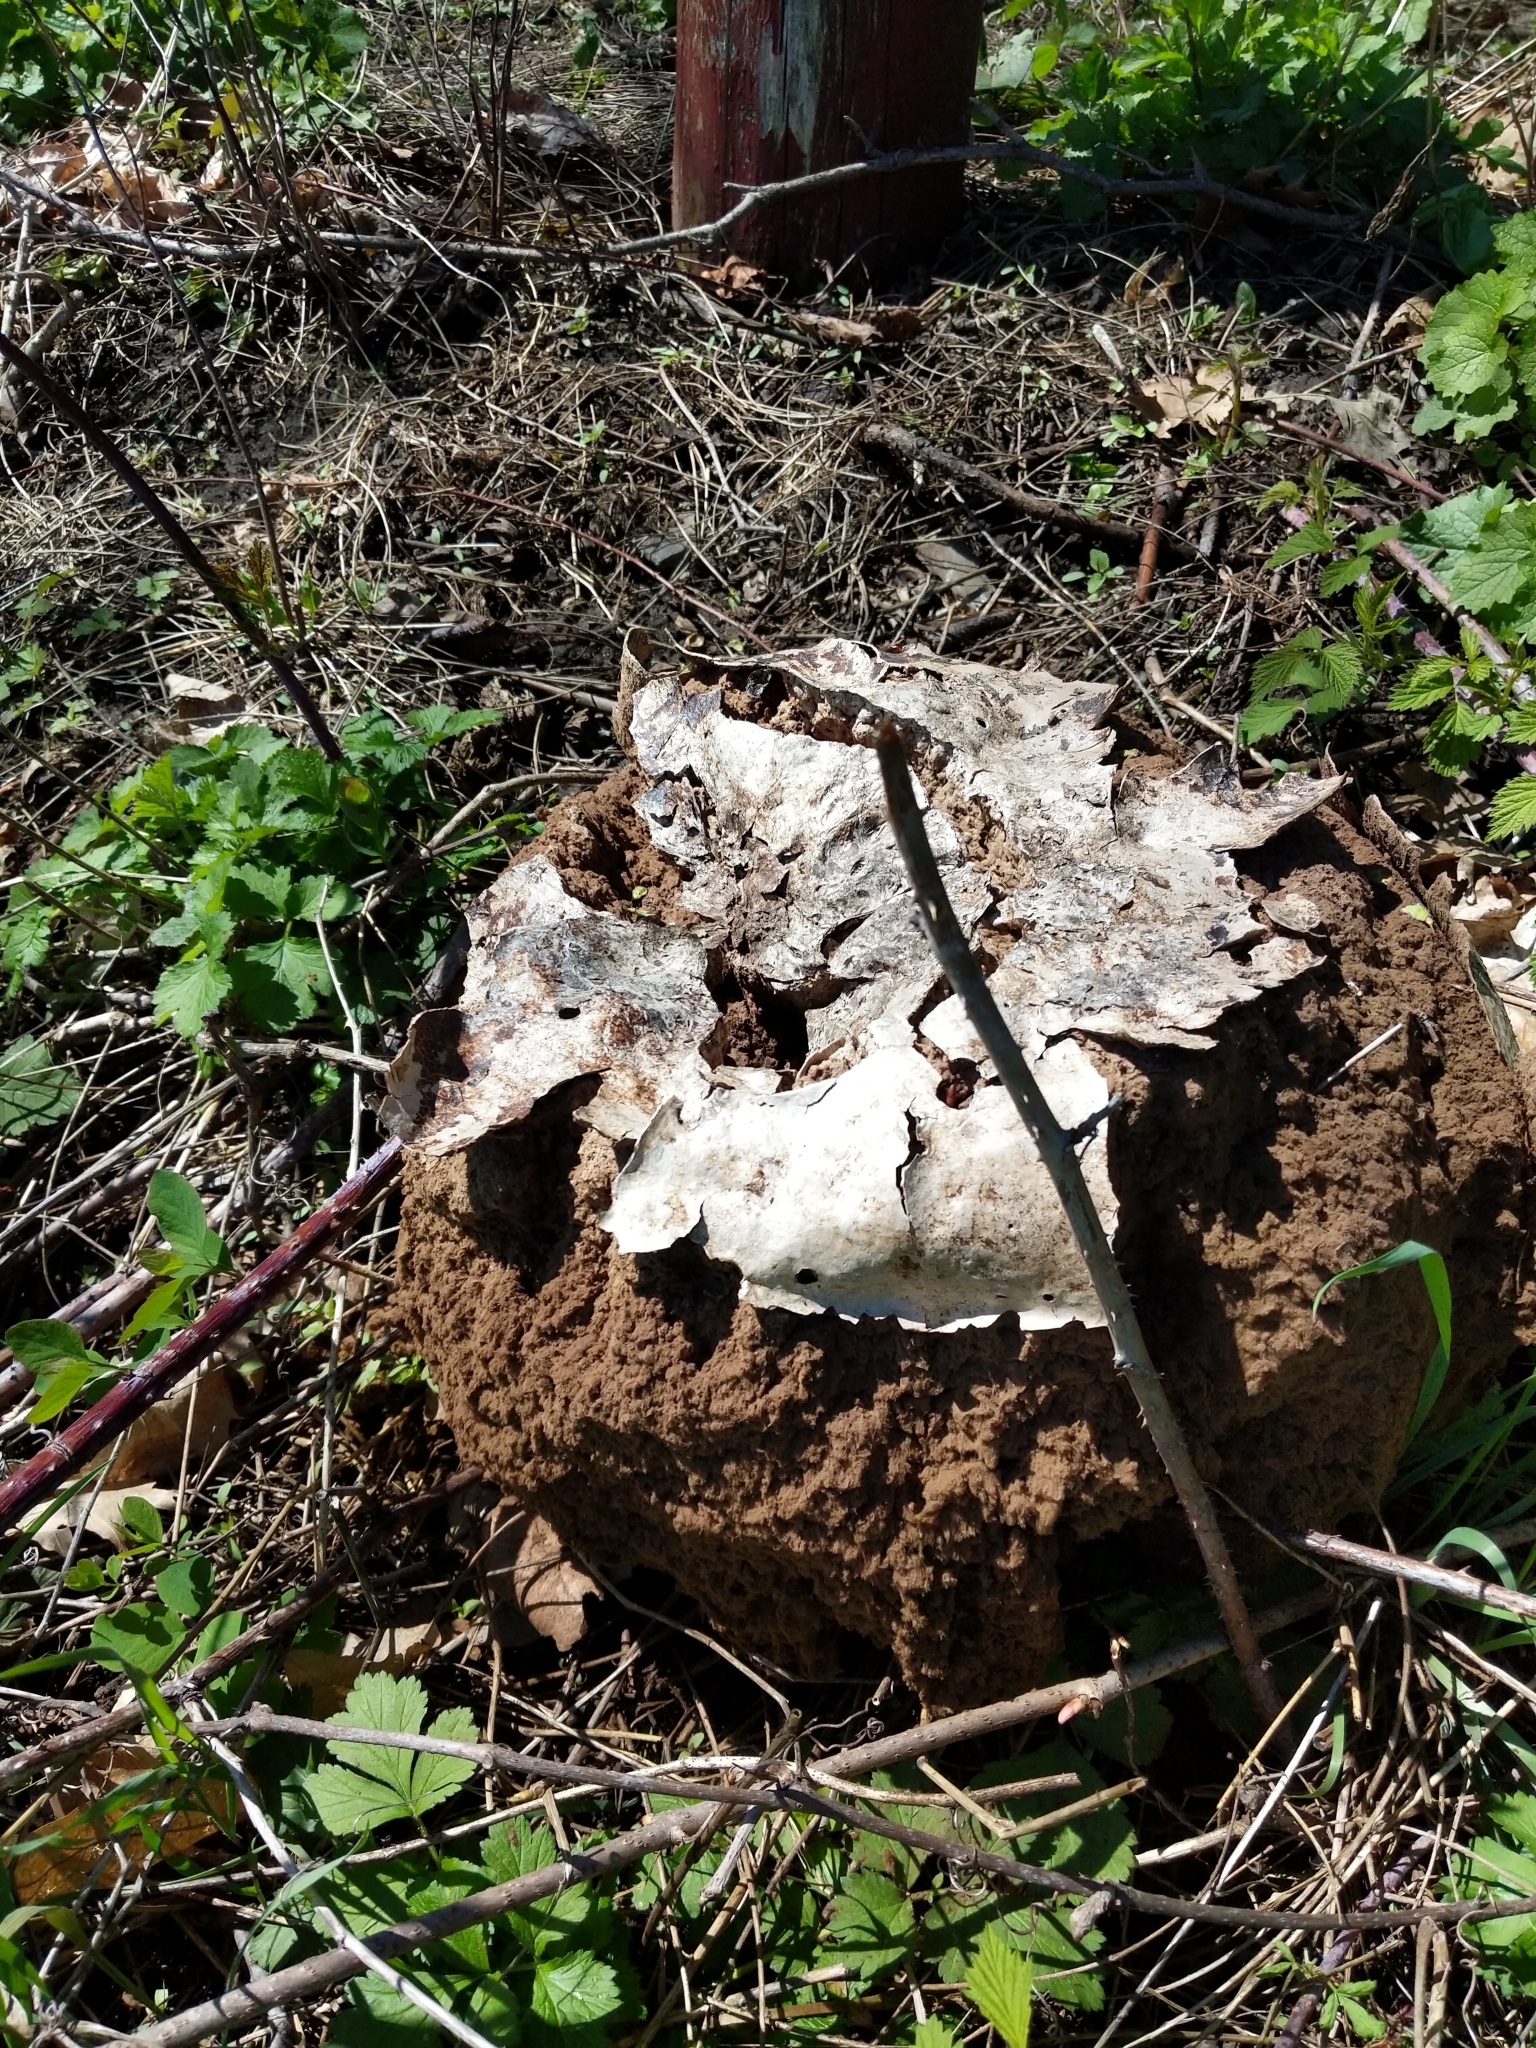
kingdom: Fungi
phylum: Basidiomycota
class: Agaricomycetes
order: Agaricales
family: Lycoperdaceae
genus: Calvatia
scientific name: Calvatia gigantea
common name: Giant puffball
